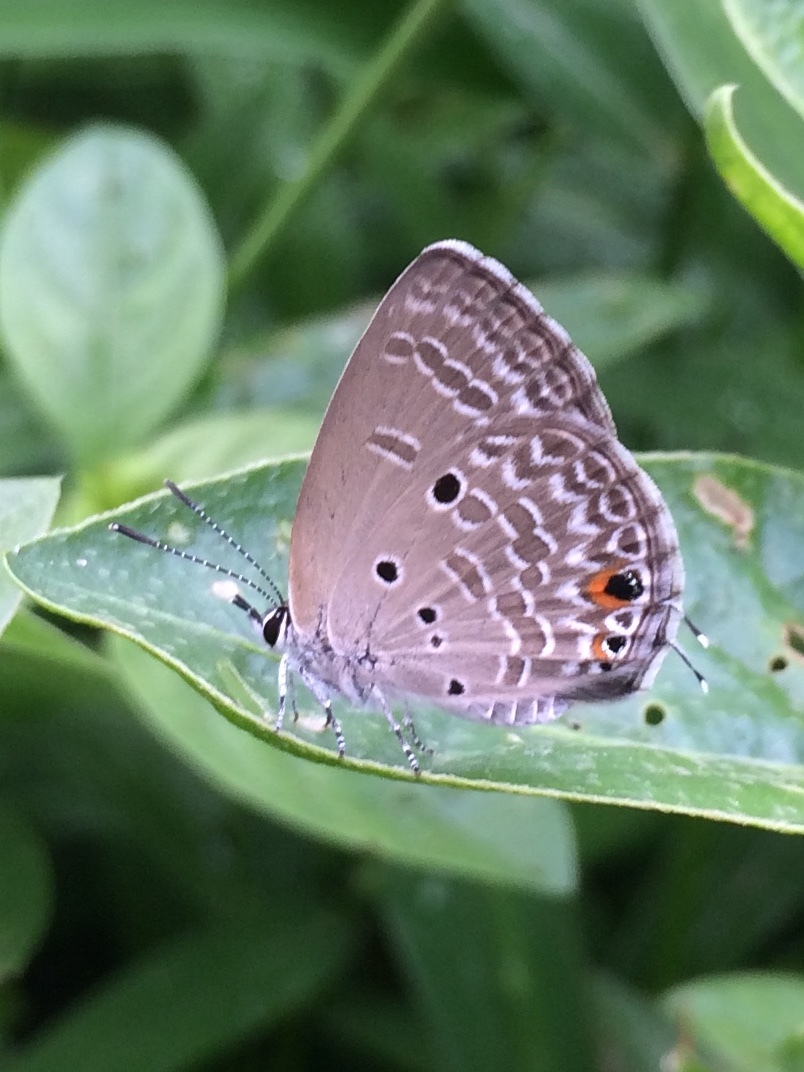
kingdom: Animalia
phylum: Arthropoda
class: Insecta
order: Lepidoptera
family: Lycaenidae
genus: Luthrodes
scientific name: Luthrodes pandava
